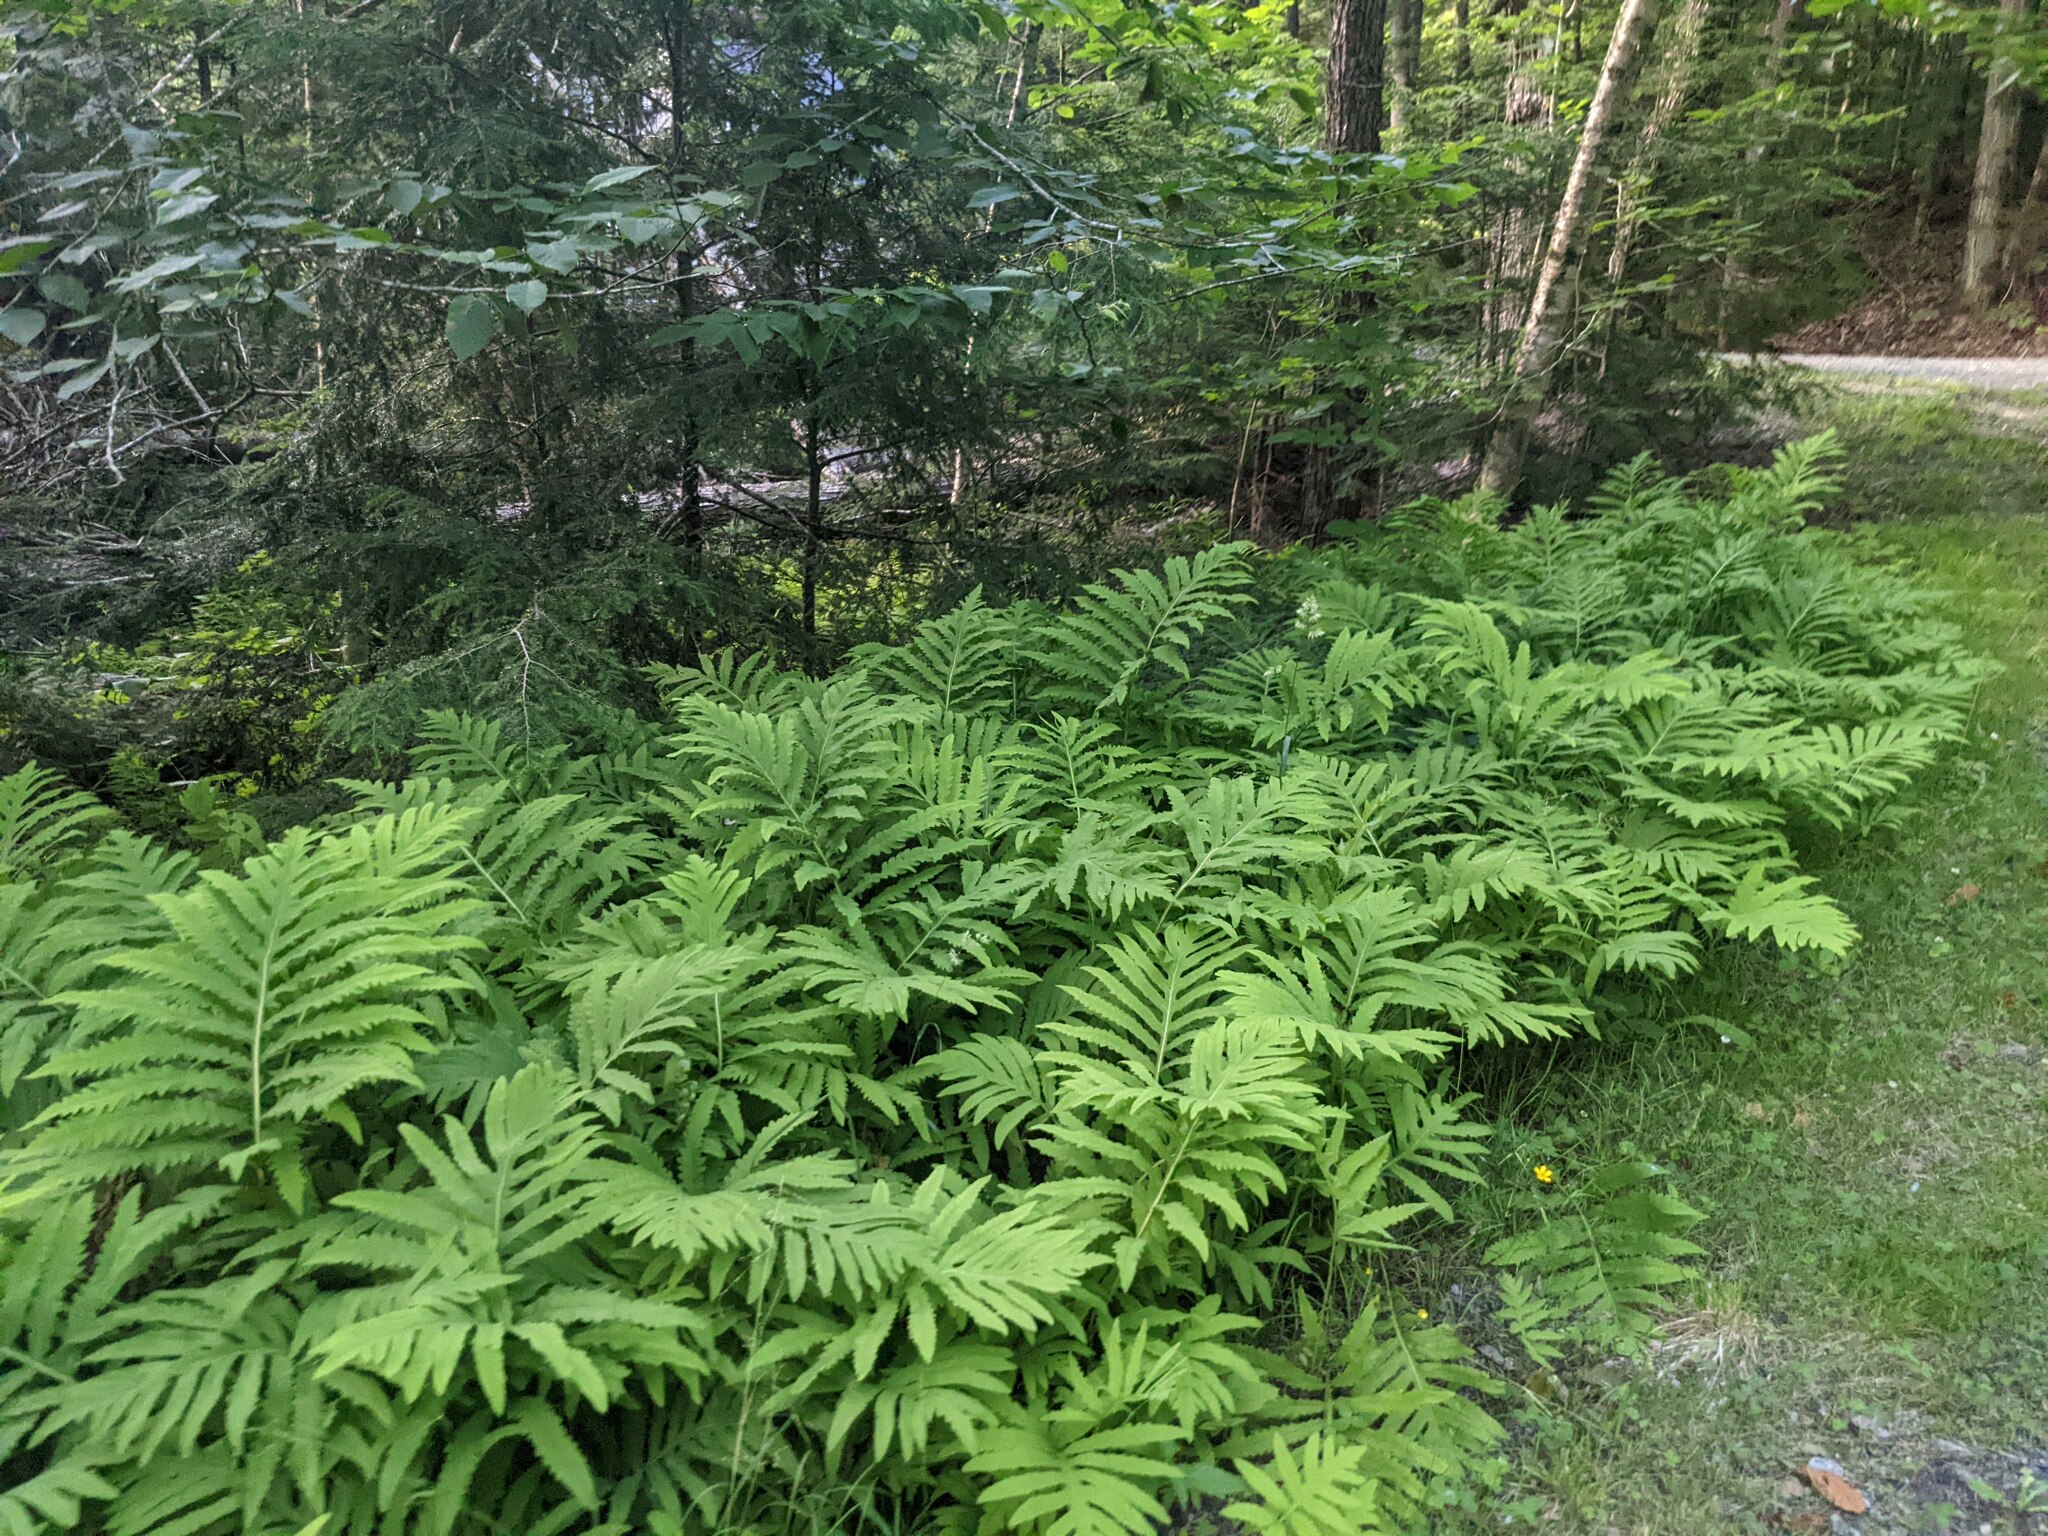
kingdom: Plantae
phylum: Tracheophyta
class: Polypodiopsida
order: Polypodiales
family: Onocleaceae
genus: Onoclea
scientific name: Onoclea sensibilis
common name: Sensitive fern
